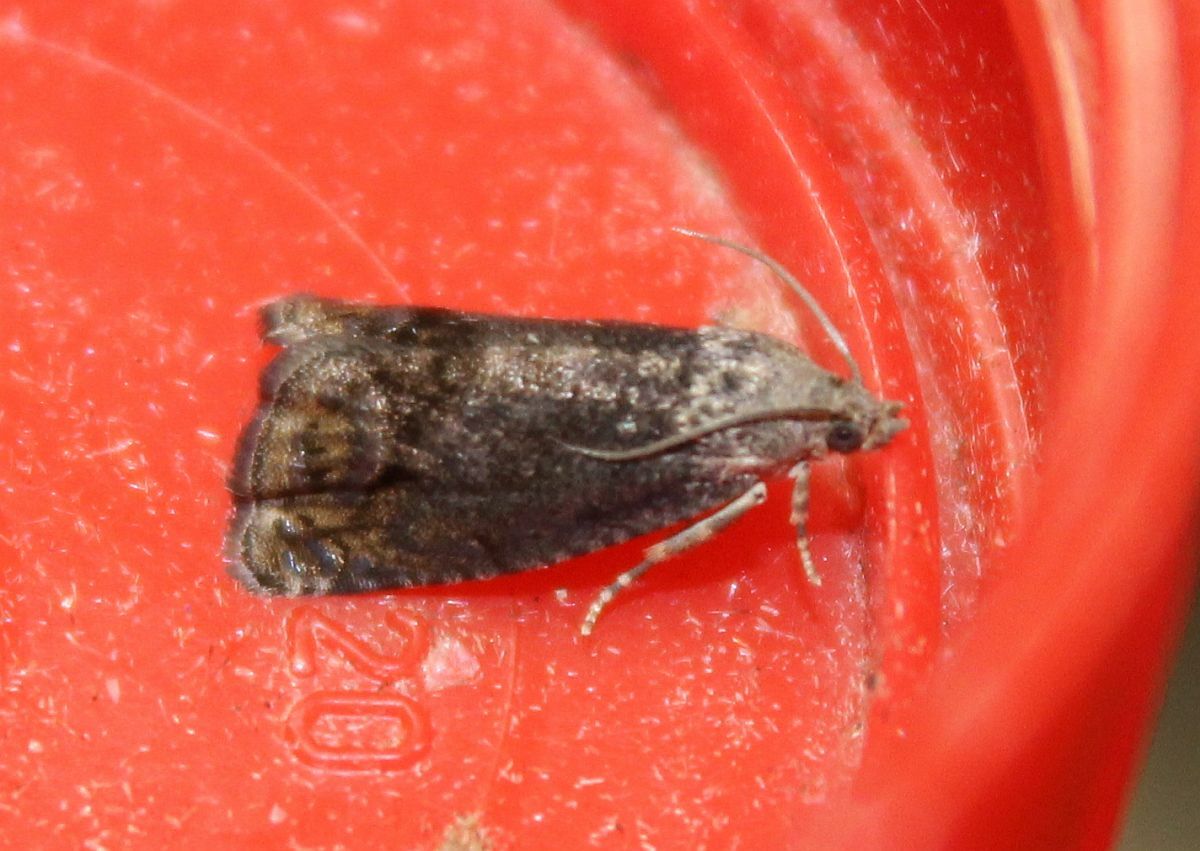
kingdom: Animalia
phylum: Arthropoda
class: Insecta
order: Lepidoptera
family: Tortricidae
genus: Cydia
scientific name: Cydia splendana
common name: De: kastanienwickler, eichenwickler es: oruga de la castaña fr: carpocapse des châtaignes it: cidia o tortrice tardiva delle castagne pt: bichado das castanhas gb: acorn moth, chestnut fruit tortrix
